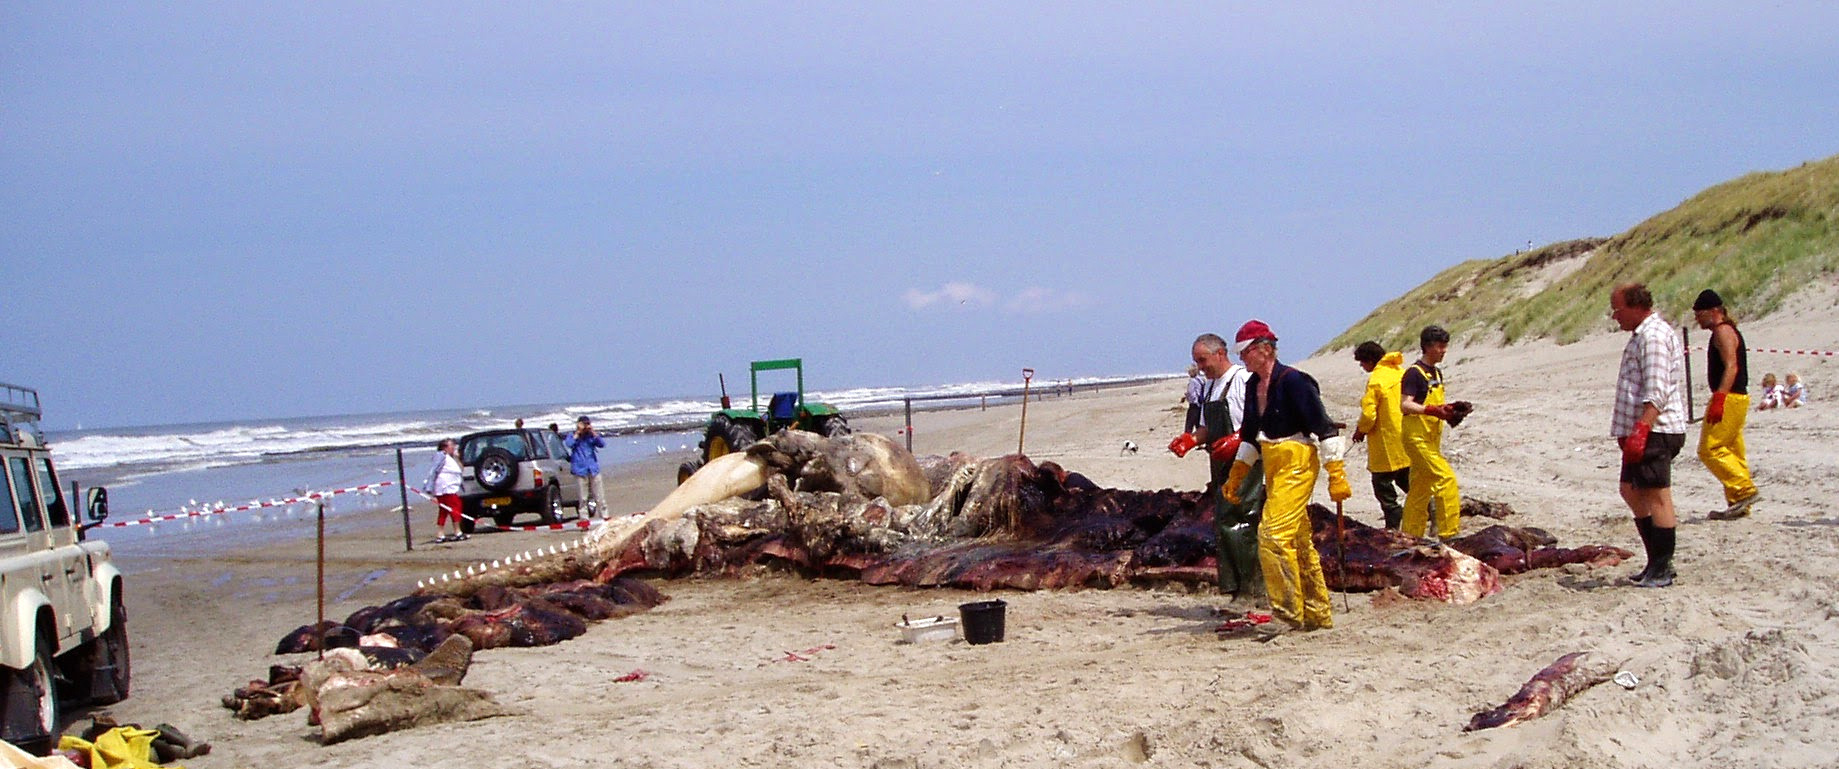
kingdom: Animalia
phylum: Chordata
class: Mammalia
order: Cetacea
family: Physeteridae
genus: Physeter
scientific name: Physeter macrocephalus
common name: Sperm whale
